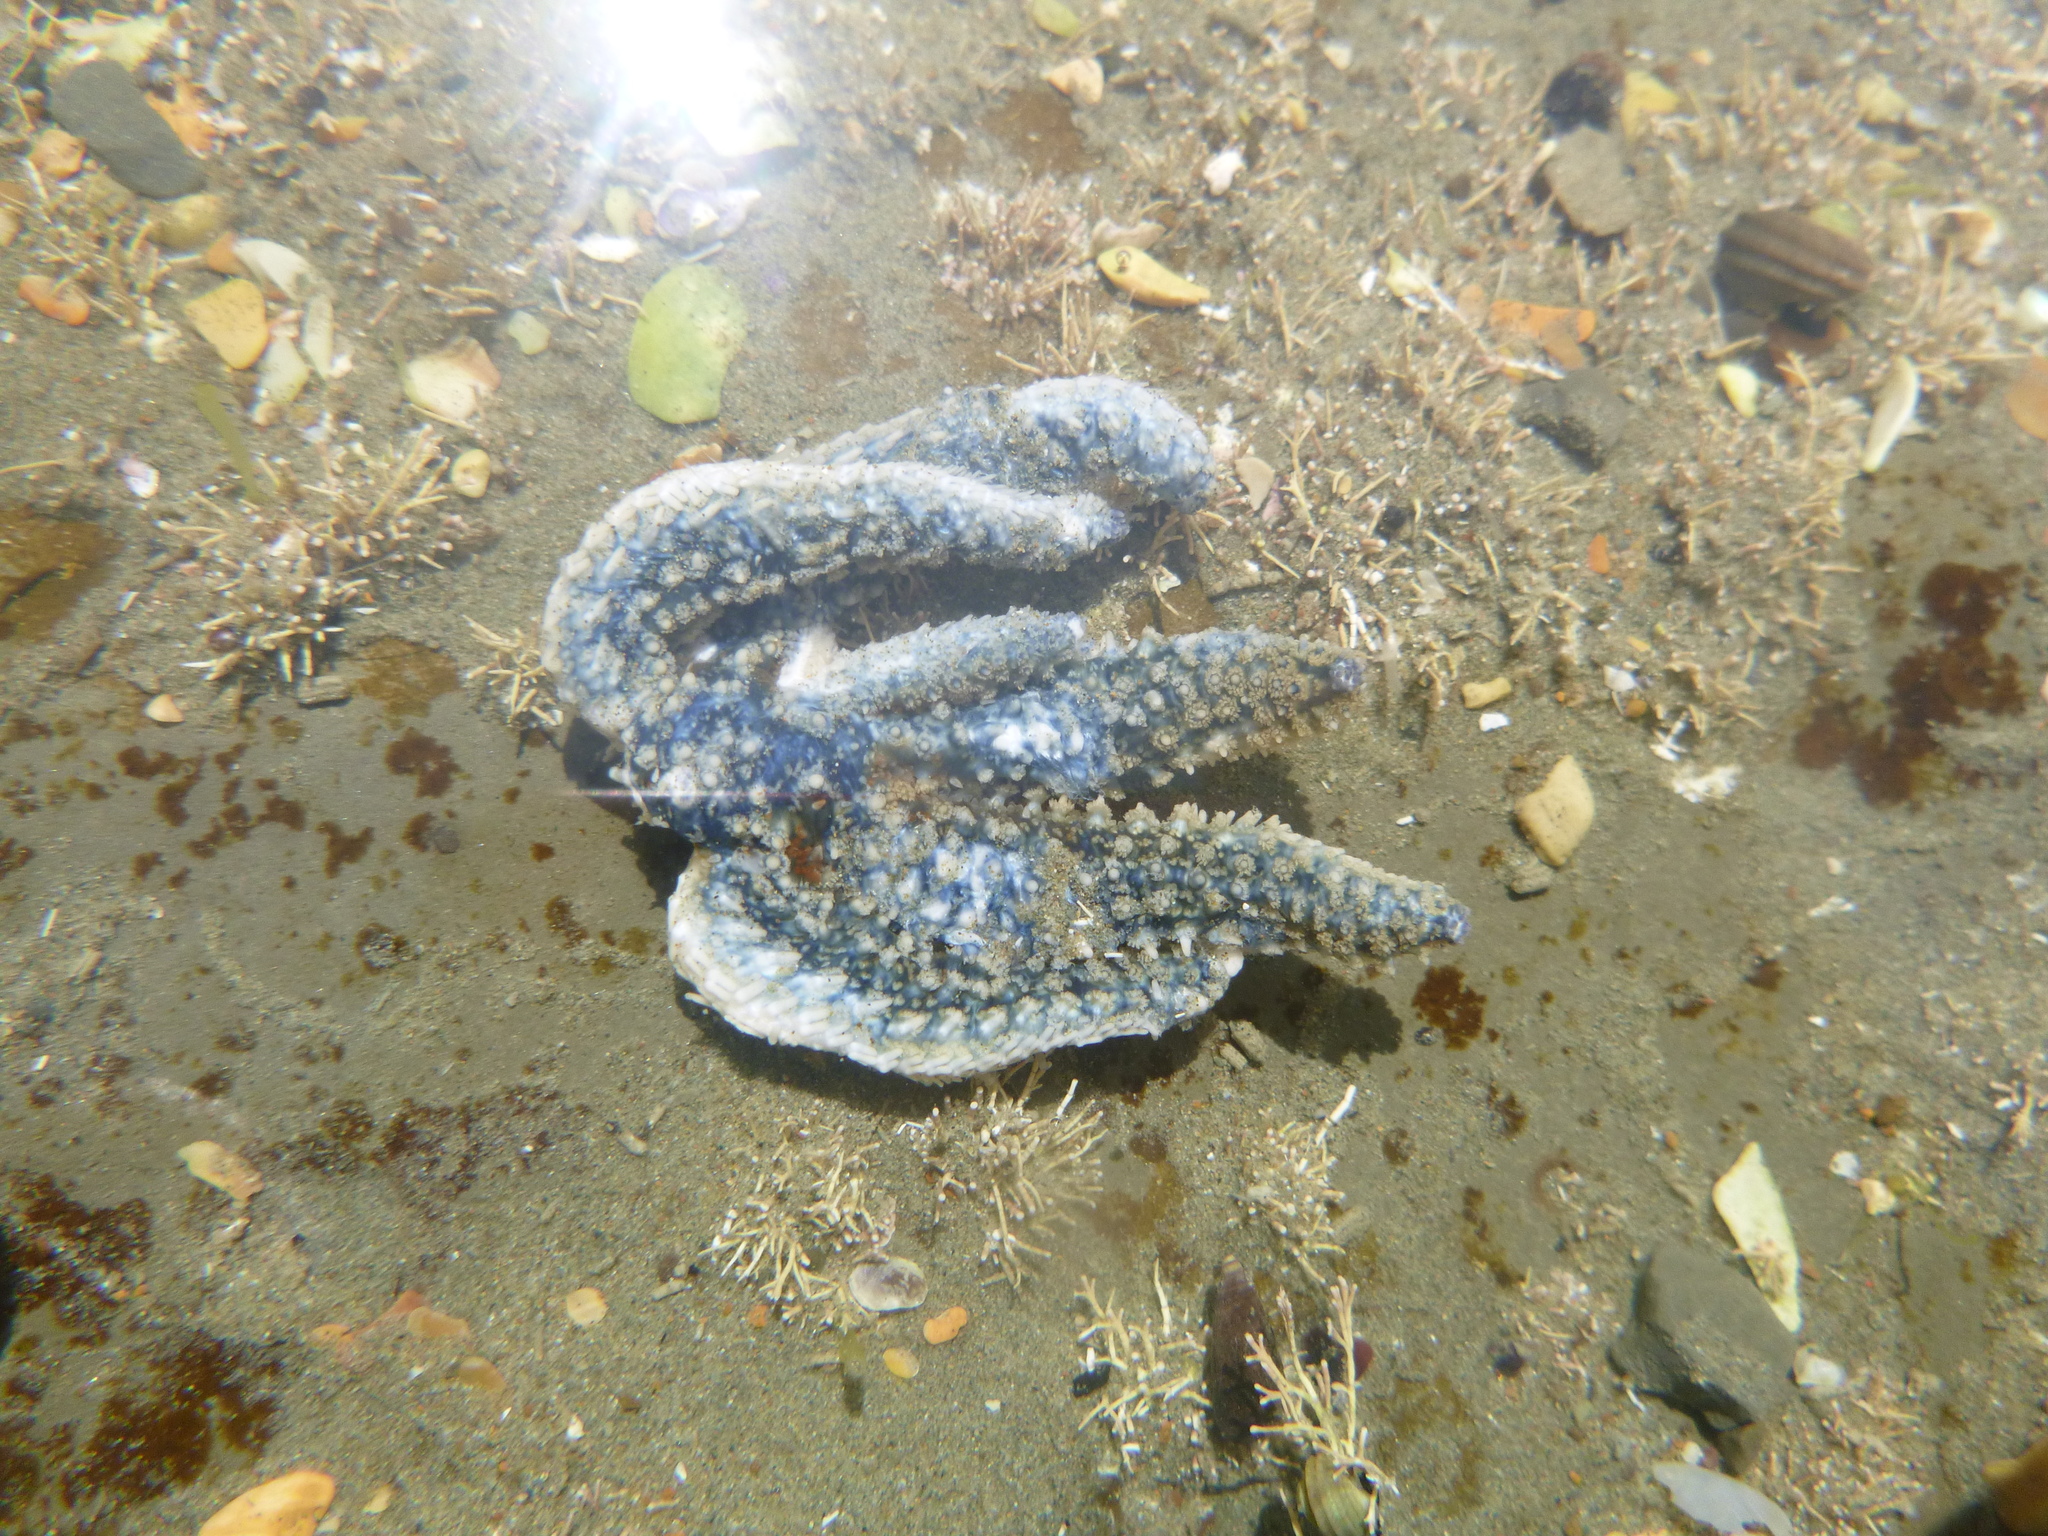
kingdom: Animalia
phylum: Echinodermata
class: Asteroidea
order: Forcipulatida
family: Asteriidae
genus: Coscinasterias
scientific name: Coscinasterias muricata
